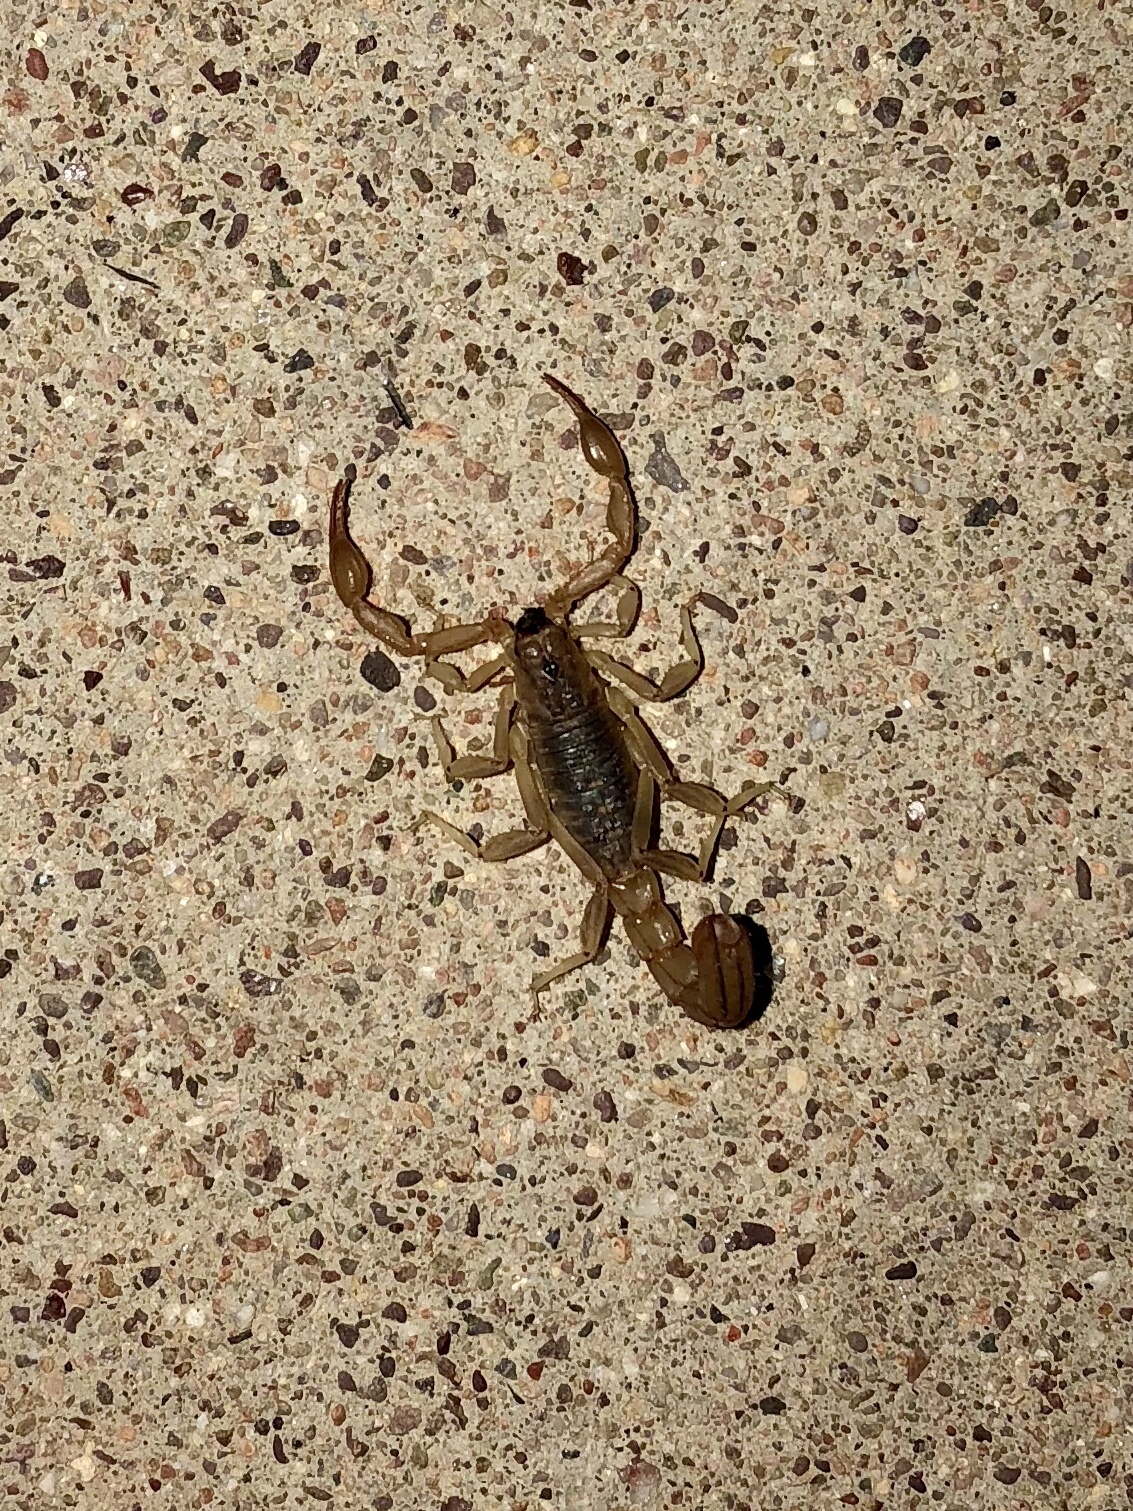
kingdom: Animalia
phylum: Arthropoda
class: Arachnida
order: Scorpiones
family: Vaejovidae
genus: Paravaejovis
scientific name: Paravaejovis spinigerus
